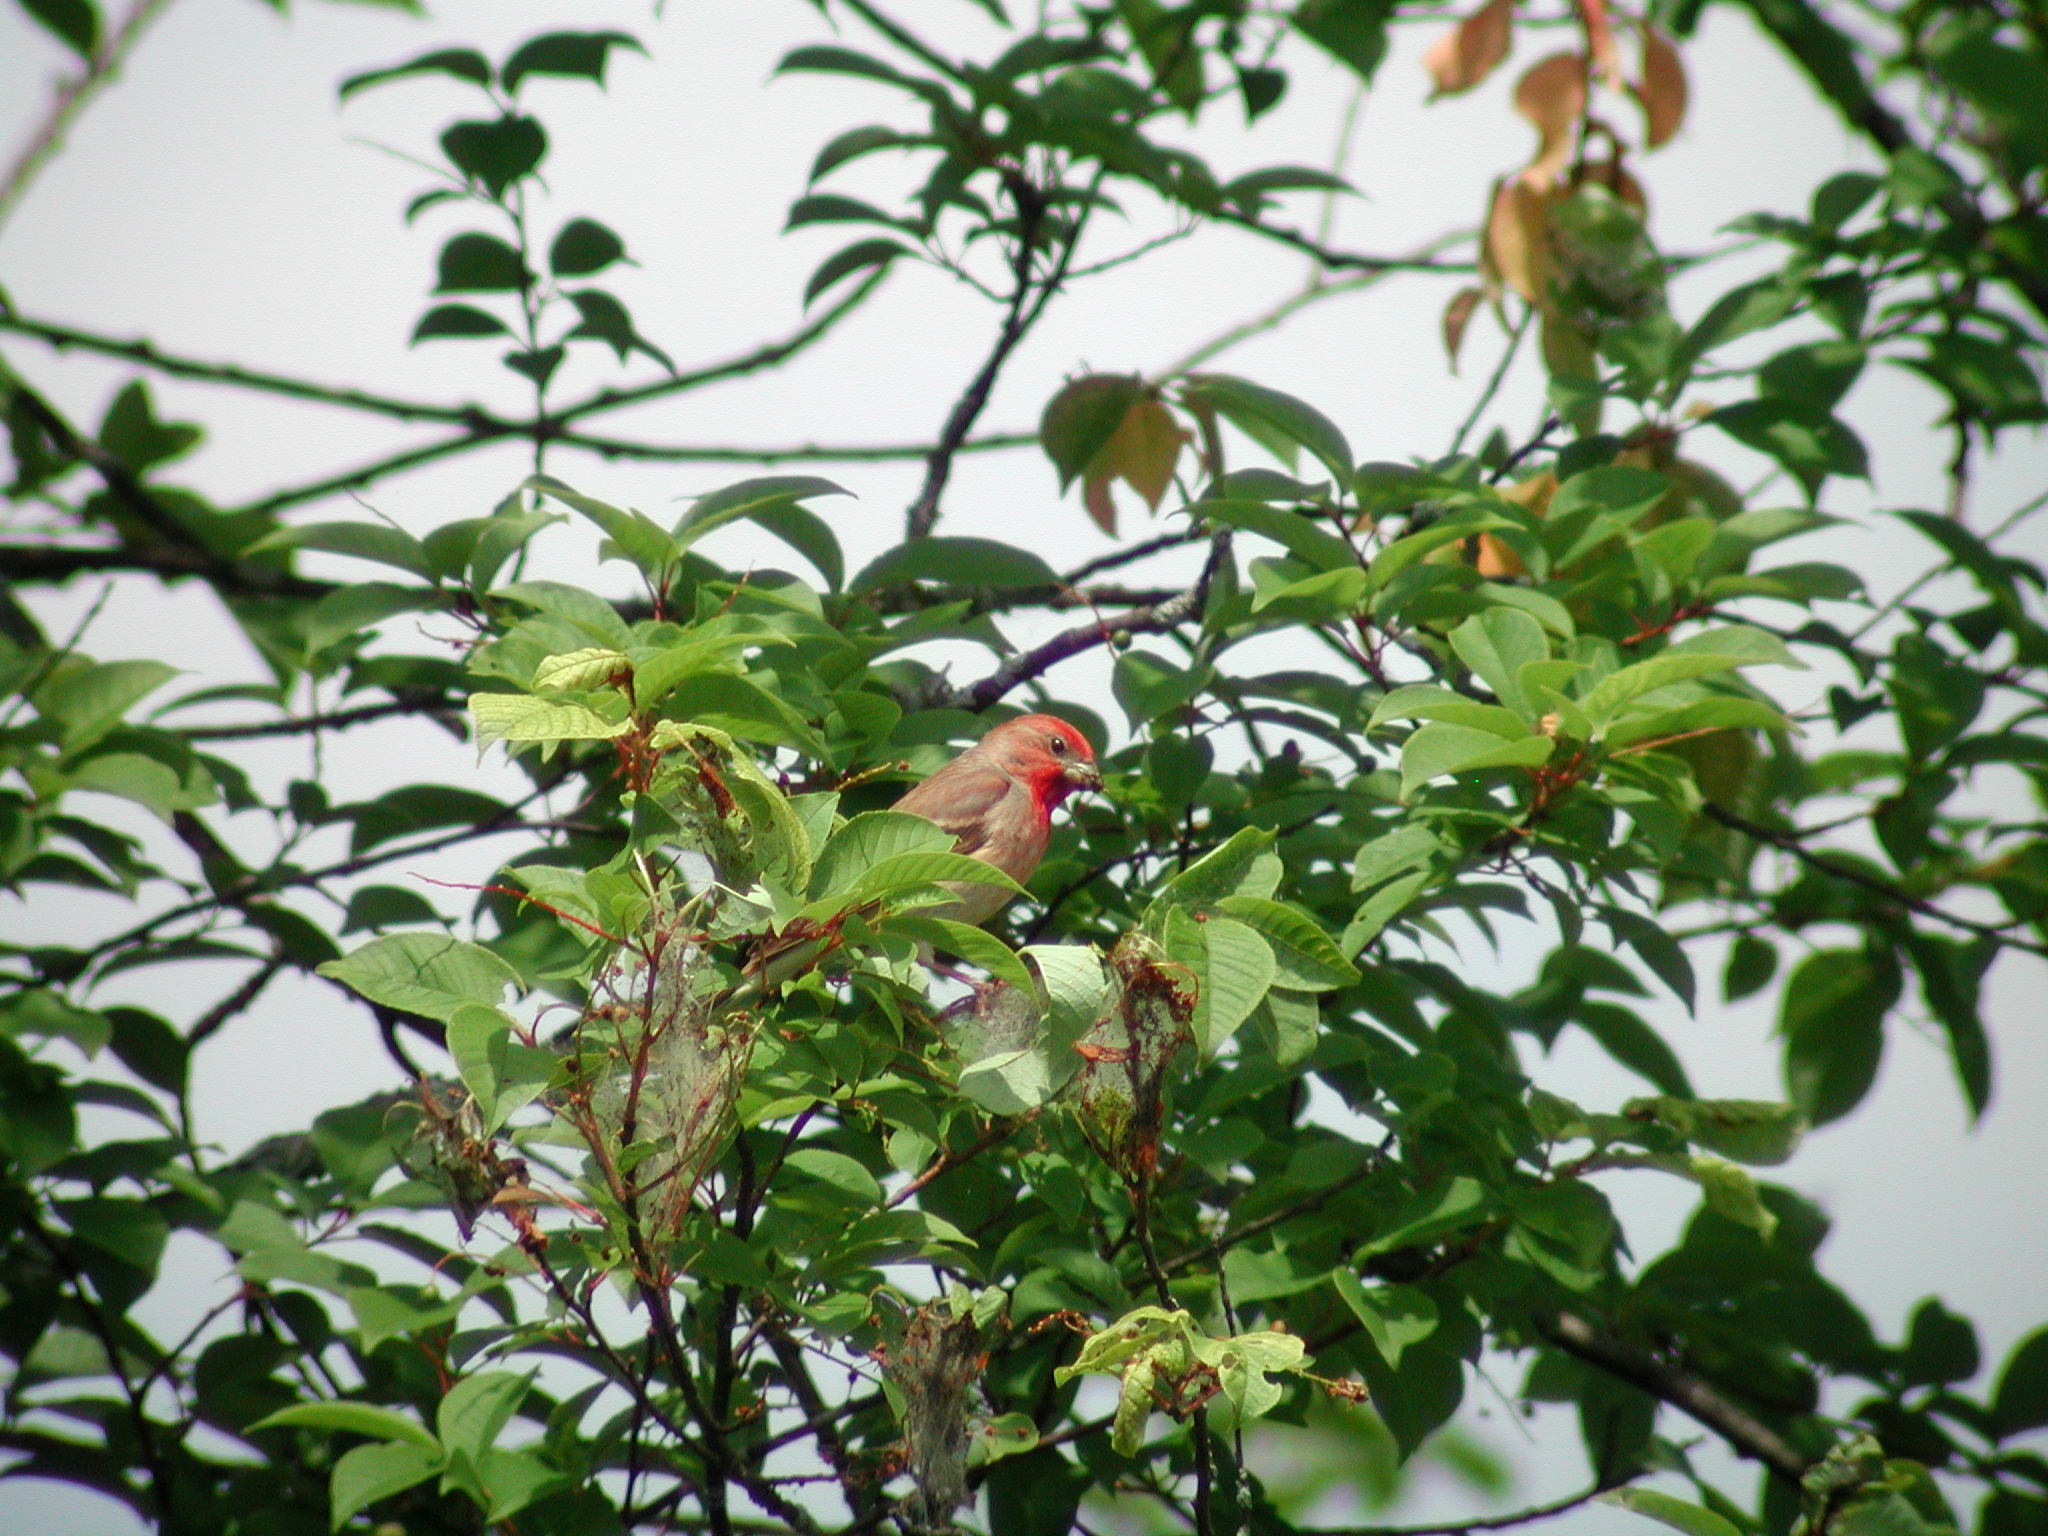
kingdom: Animalia
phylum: Chordata
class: Aves
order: Passeriformes
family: Fringillidae
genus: Carpodacus
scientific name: Carpodacus erythrinus
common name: Common rosefinch
